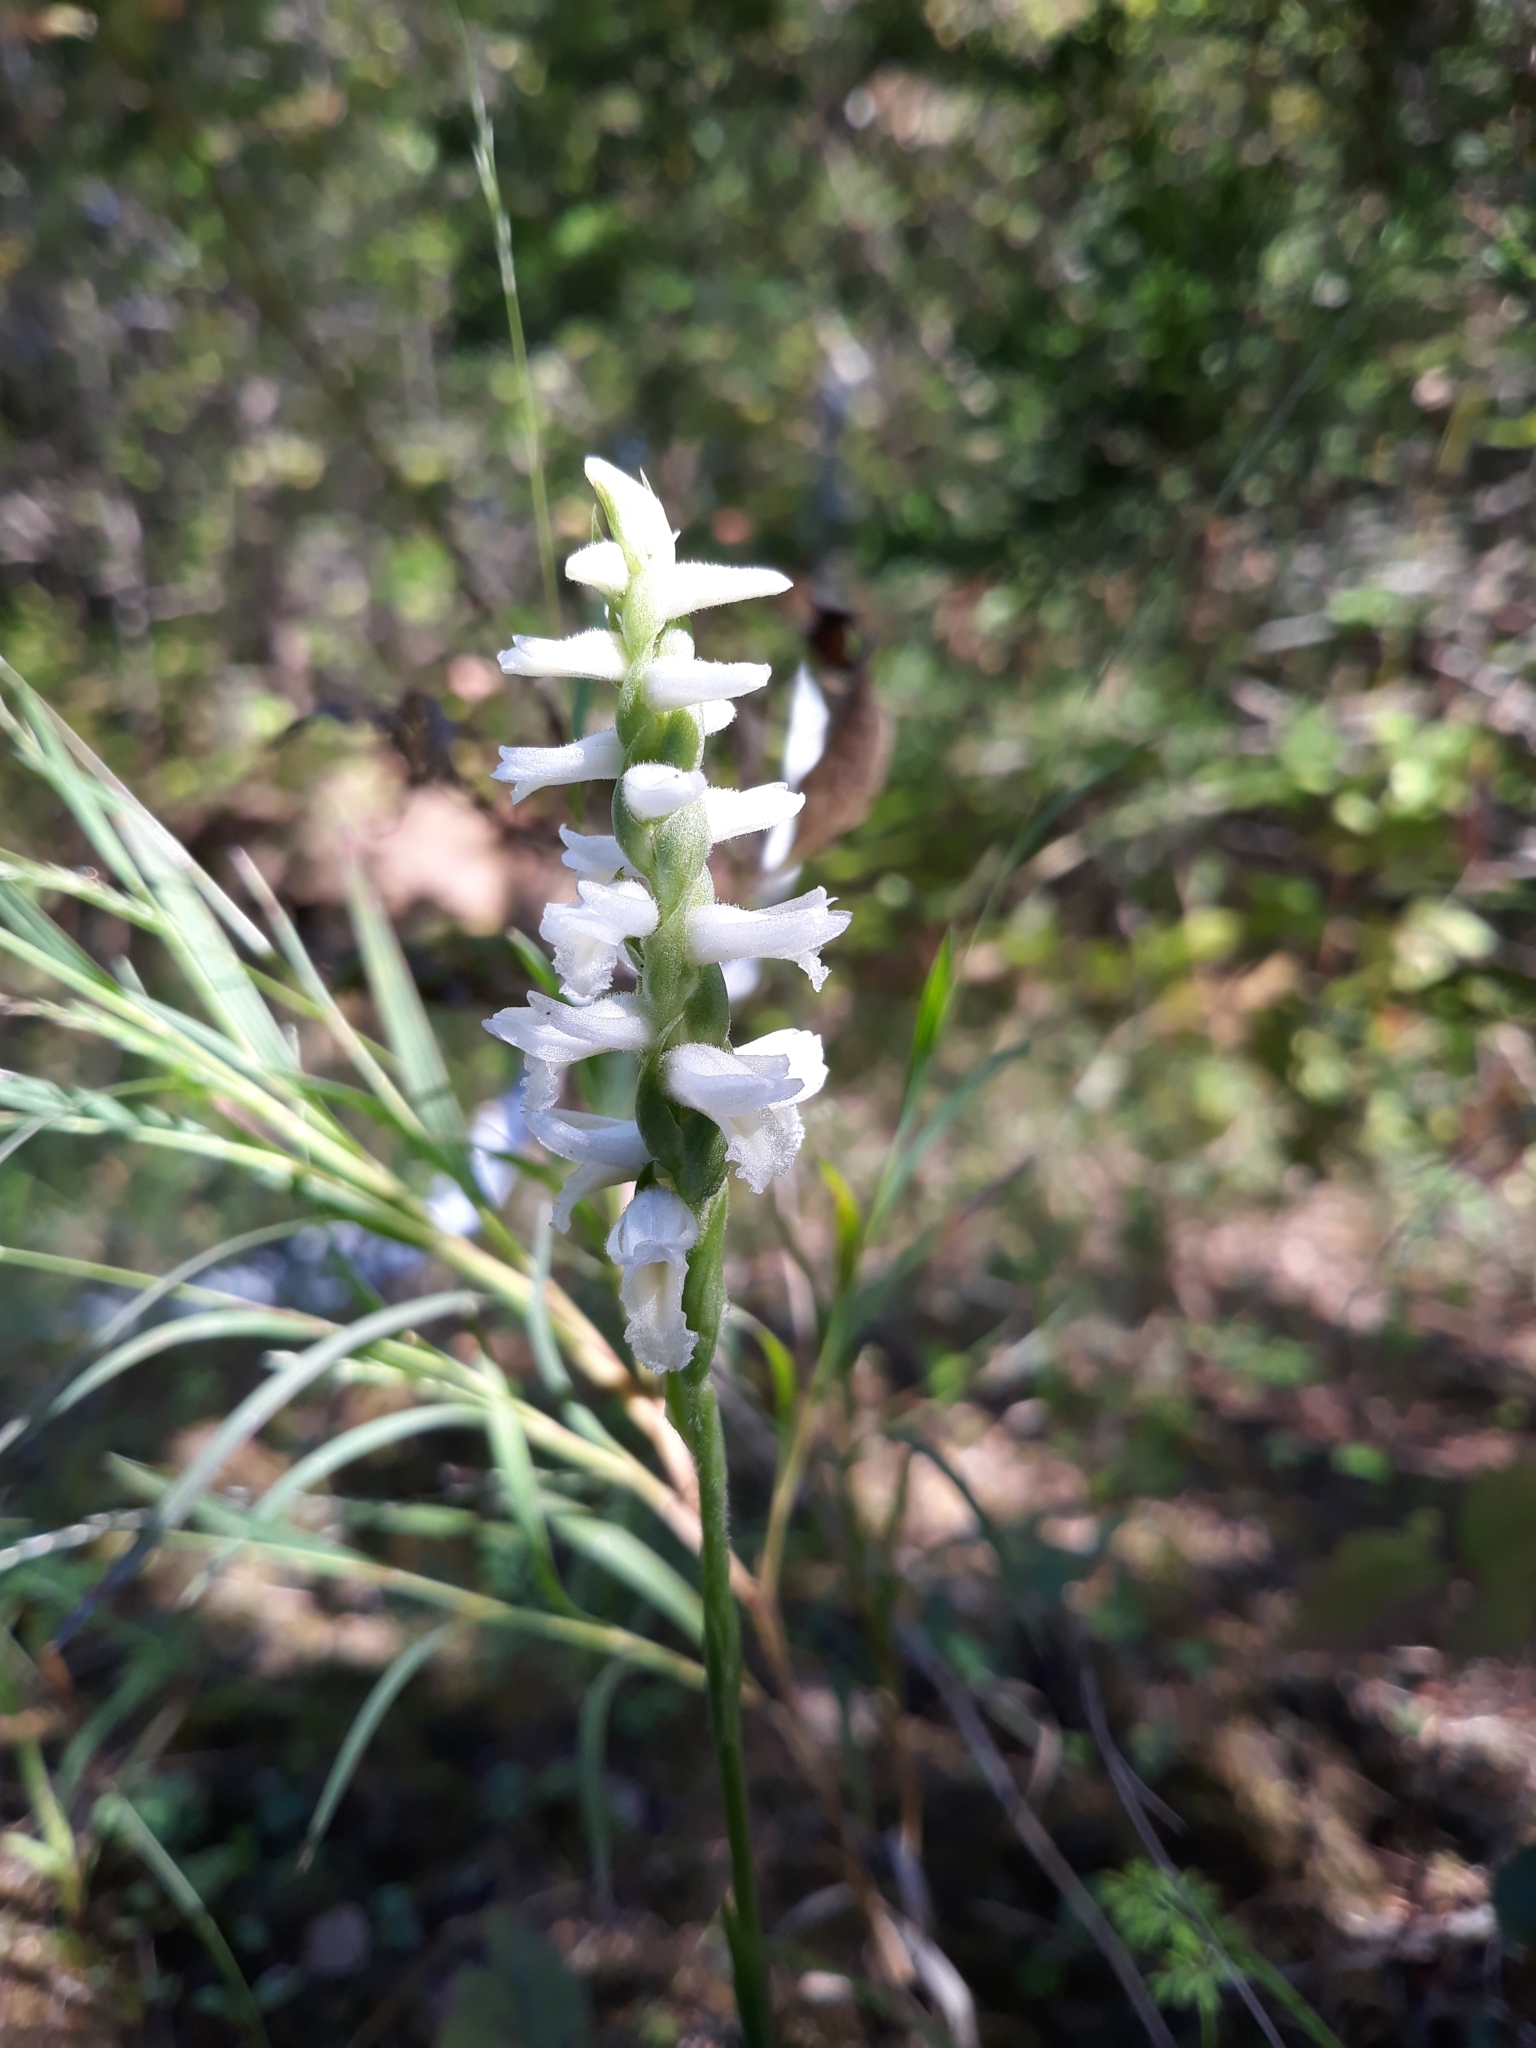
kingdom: Plantae
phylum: Tracheophyta
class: Liliopsida
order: Asparagales
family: Orchidaceae
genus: Spiranthes
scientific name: Spiranthes magnicamporum
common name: Great plains ladies'-tresses
